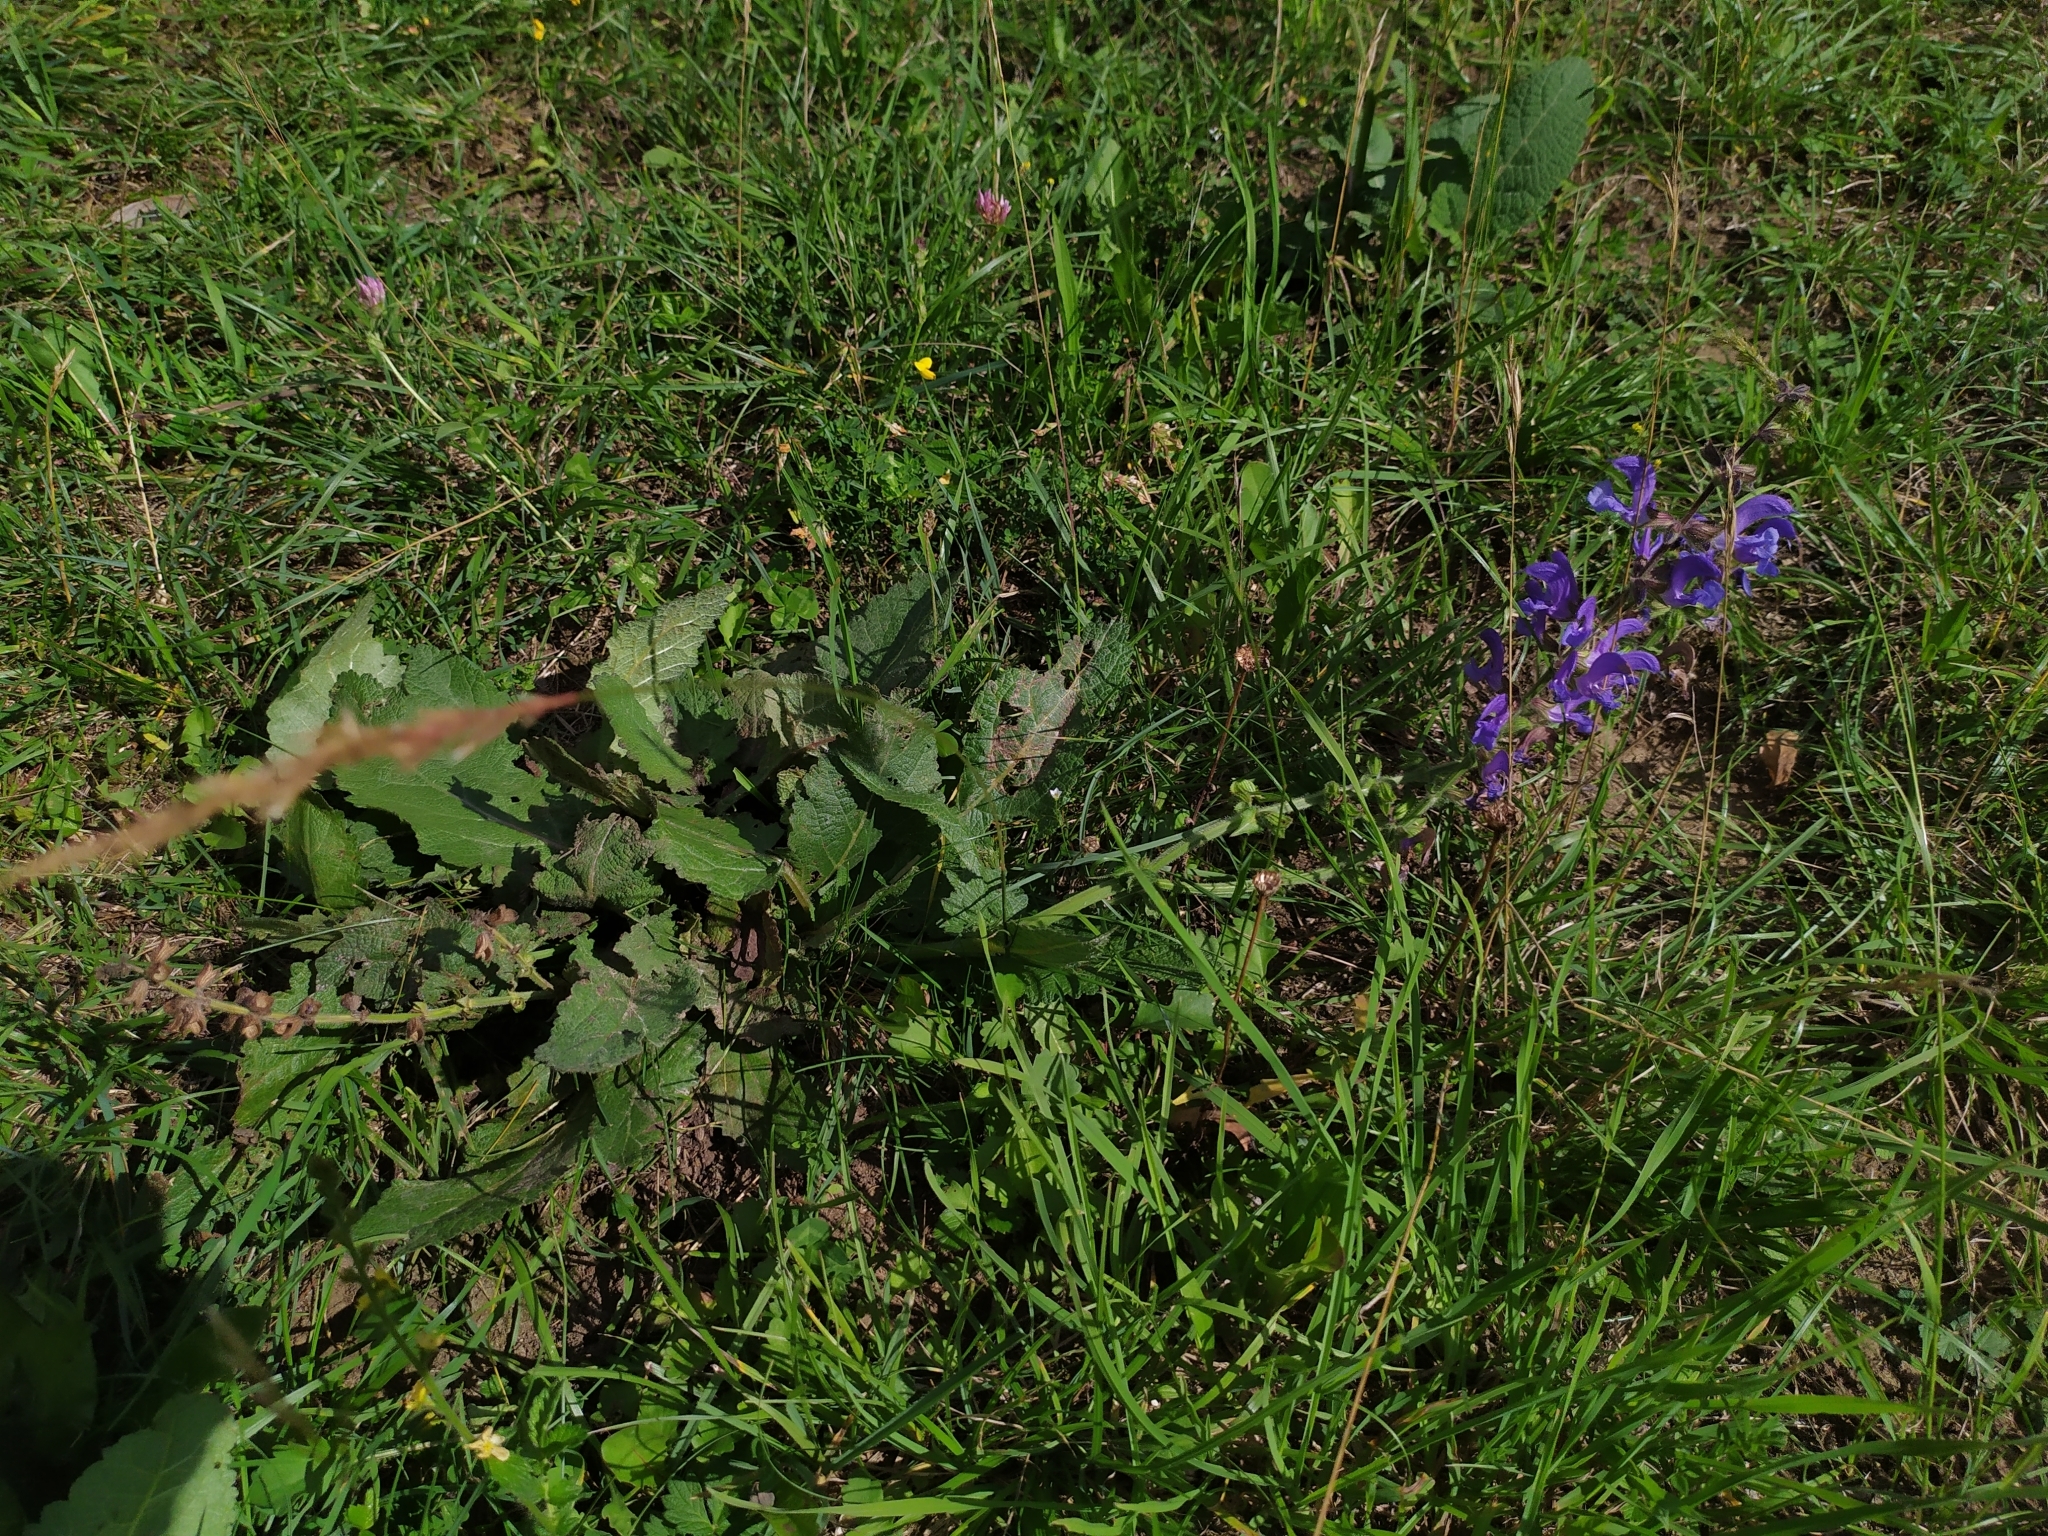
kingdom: Plantae
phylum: Tracheophyta
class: Magnoliopsida
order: Lamiales
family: Lamiaceae
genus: Salvia
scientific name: Salvia pratensis
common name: Meadow sage
